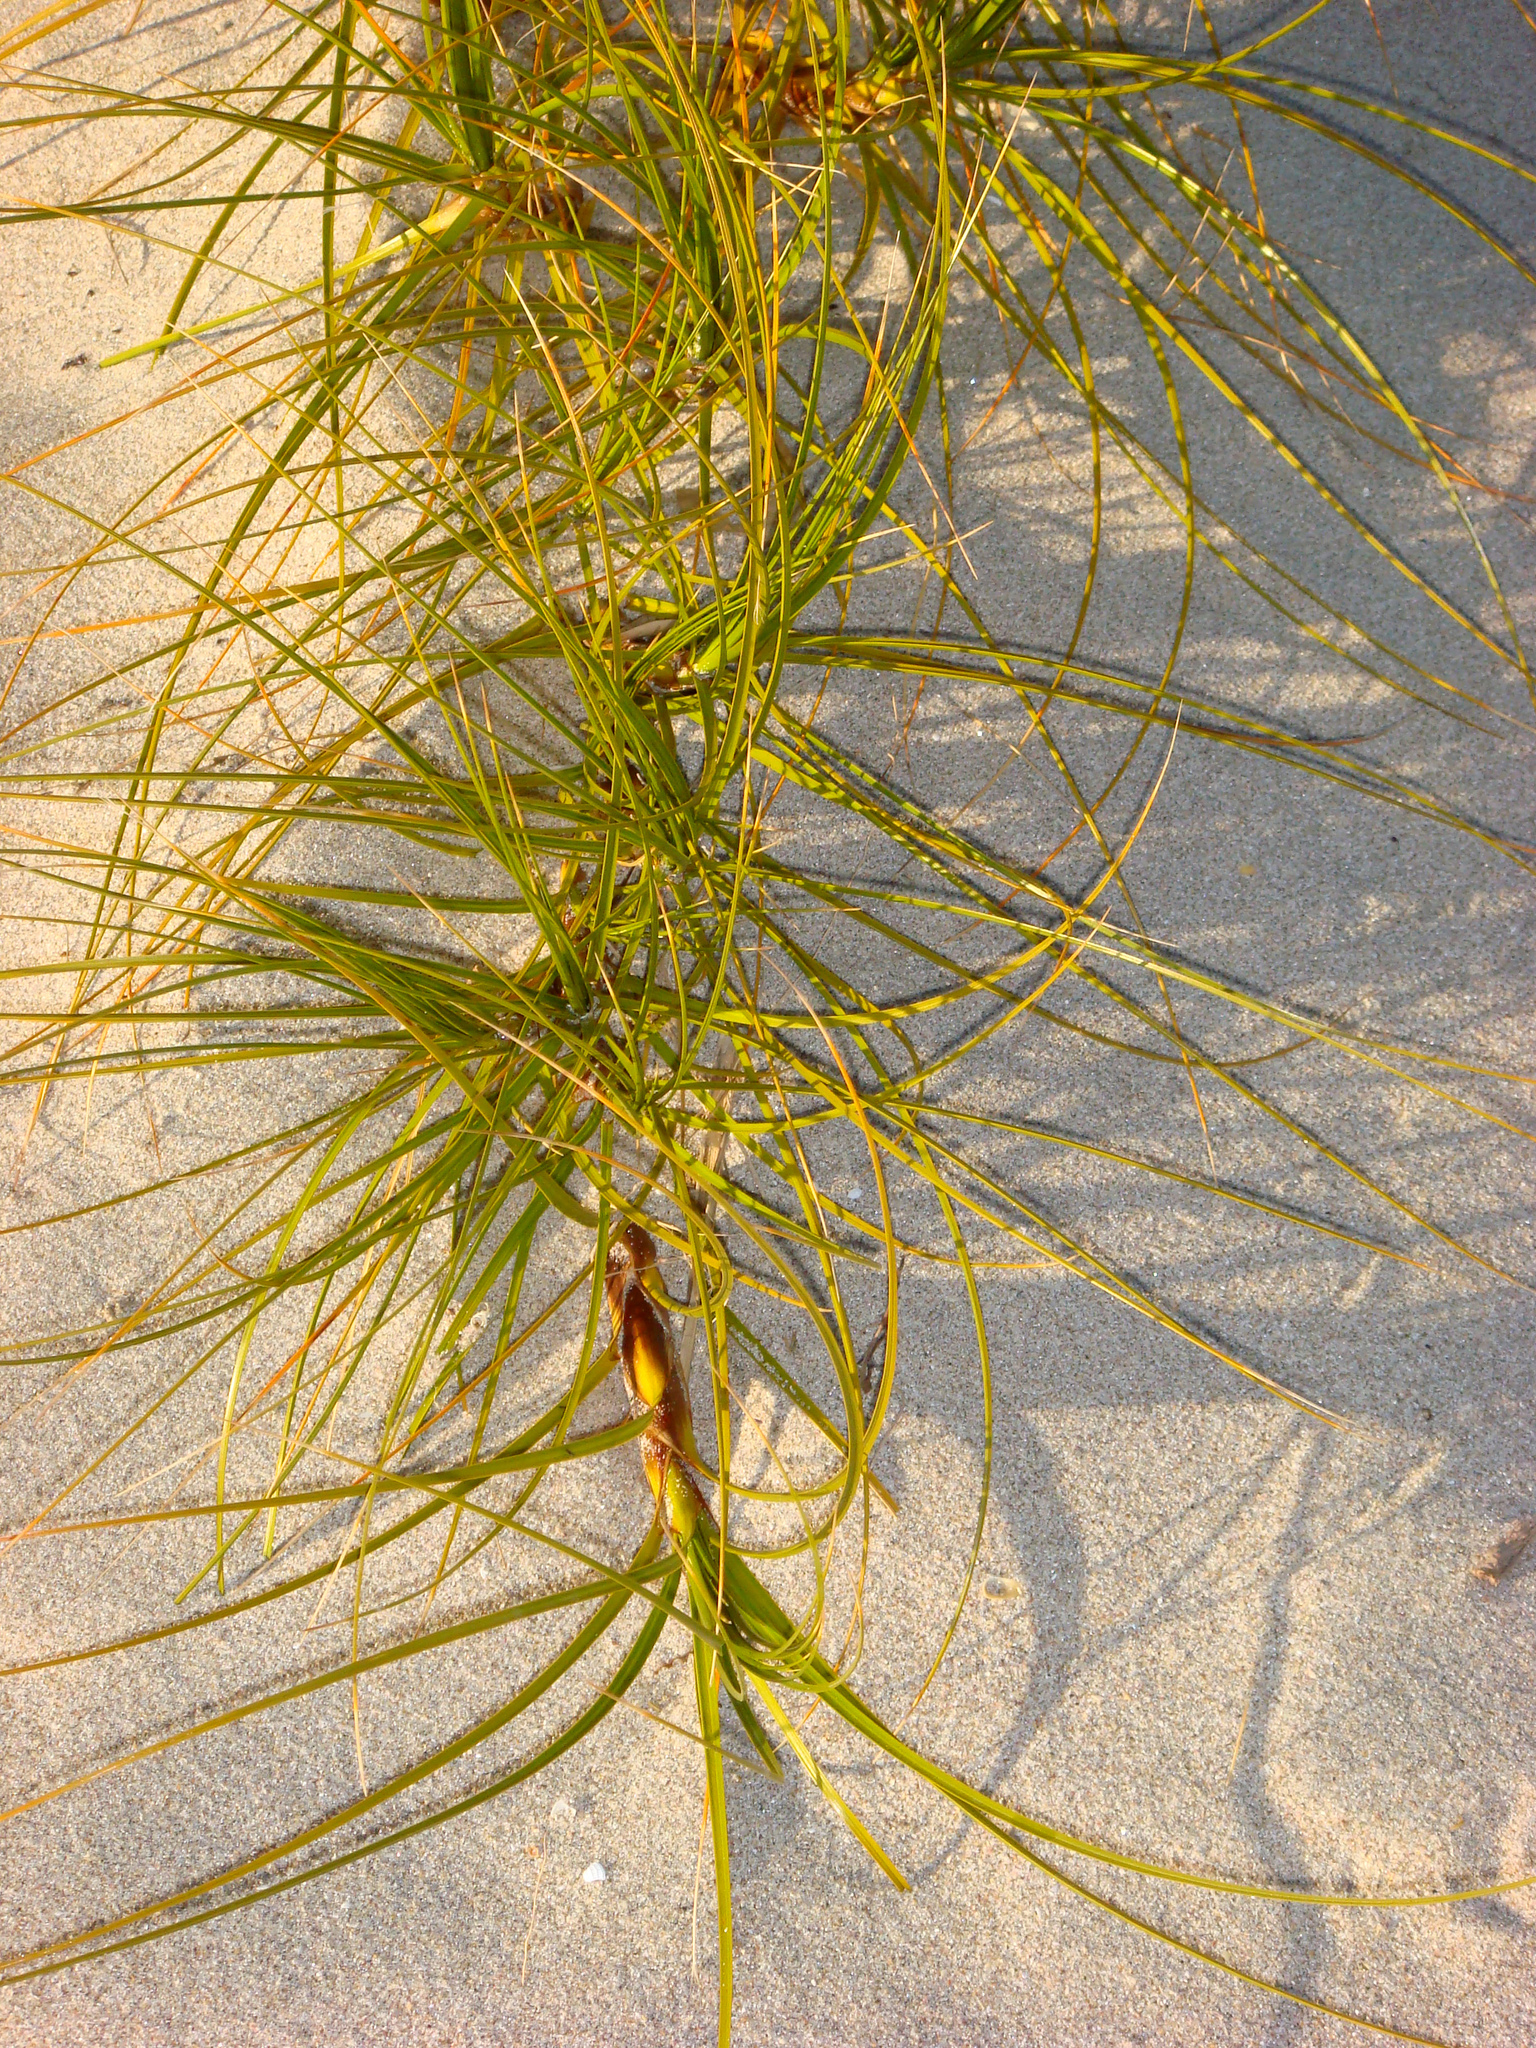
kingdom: Plantae
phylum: Tracheophyta
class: Liliopsida
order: Poales
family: Cyperaceae
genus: Ficinia
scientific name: Ficinia spiralis
